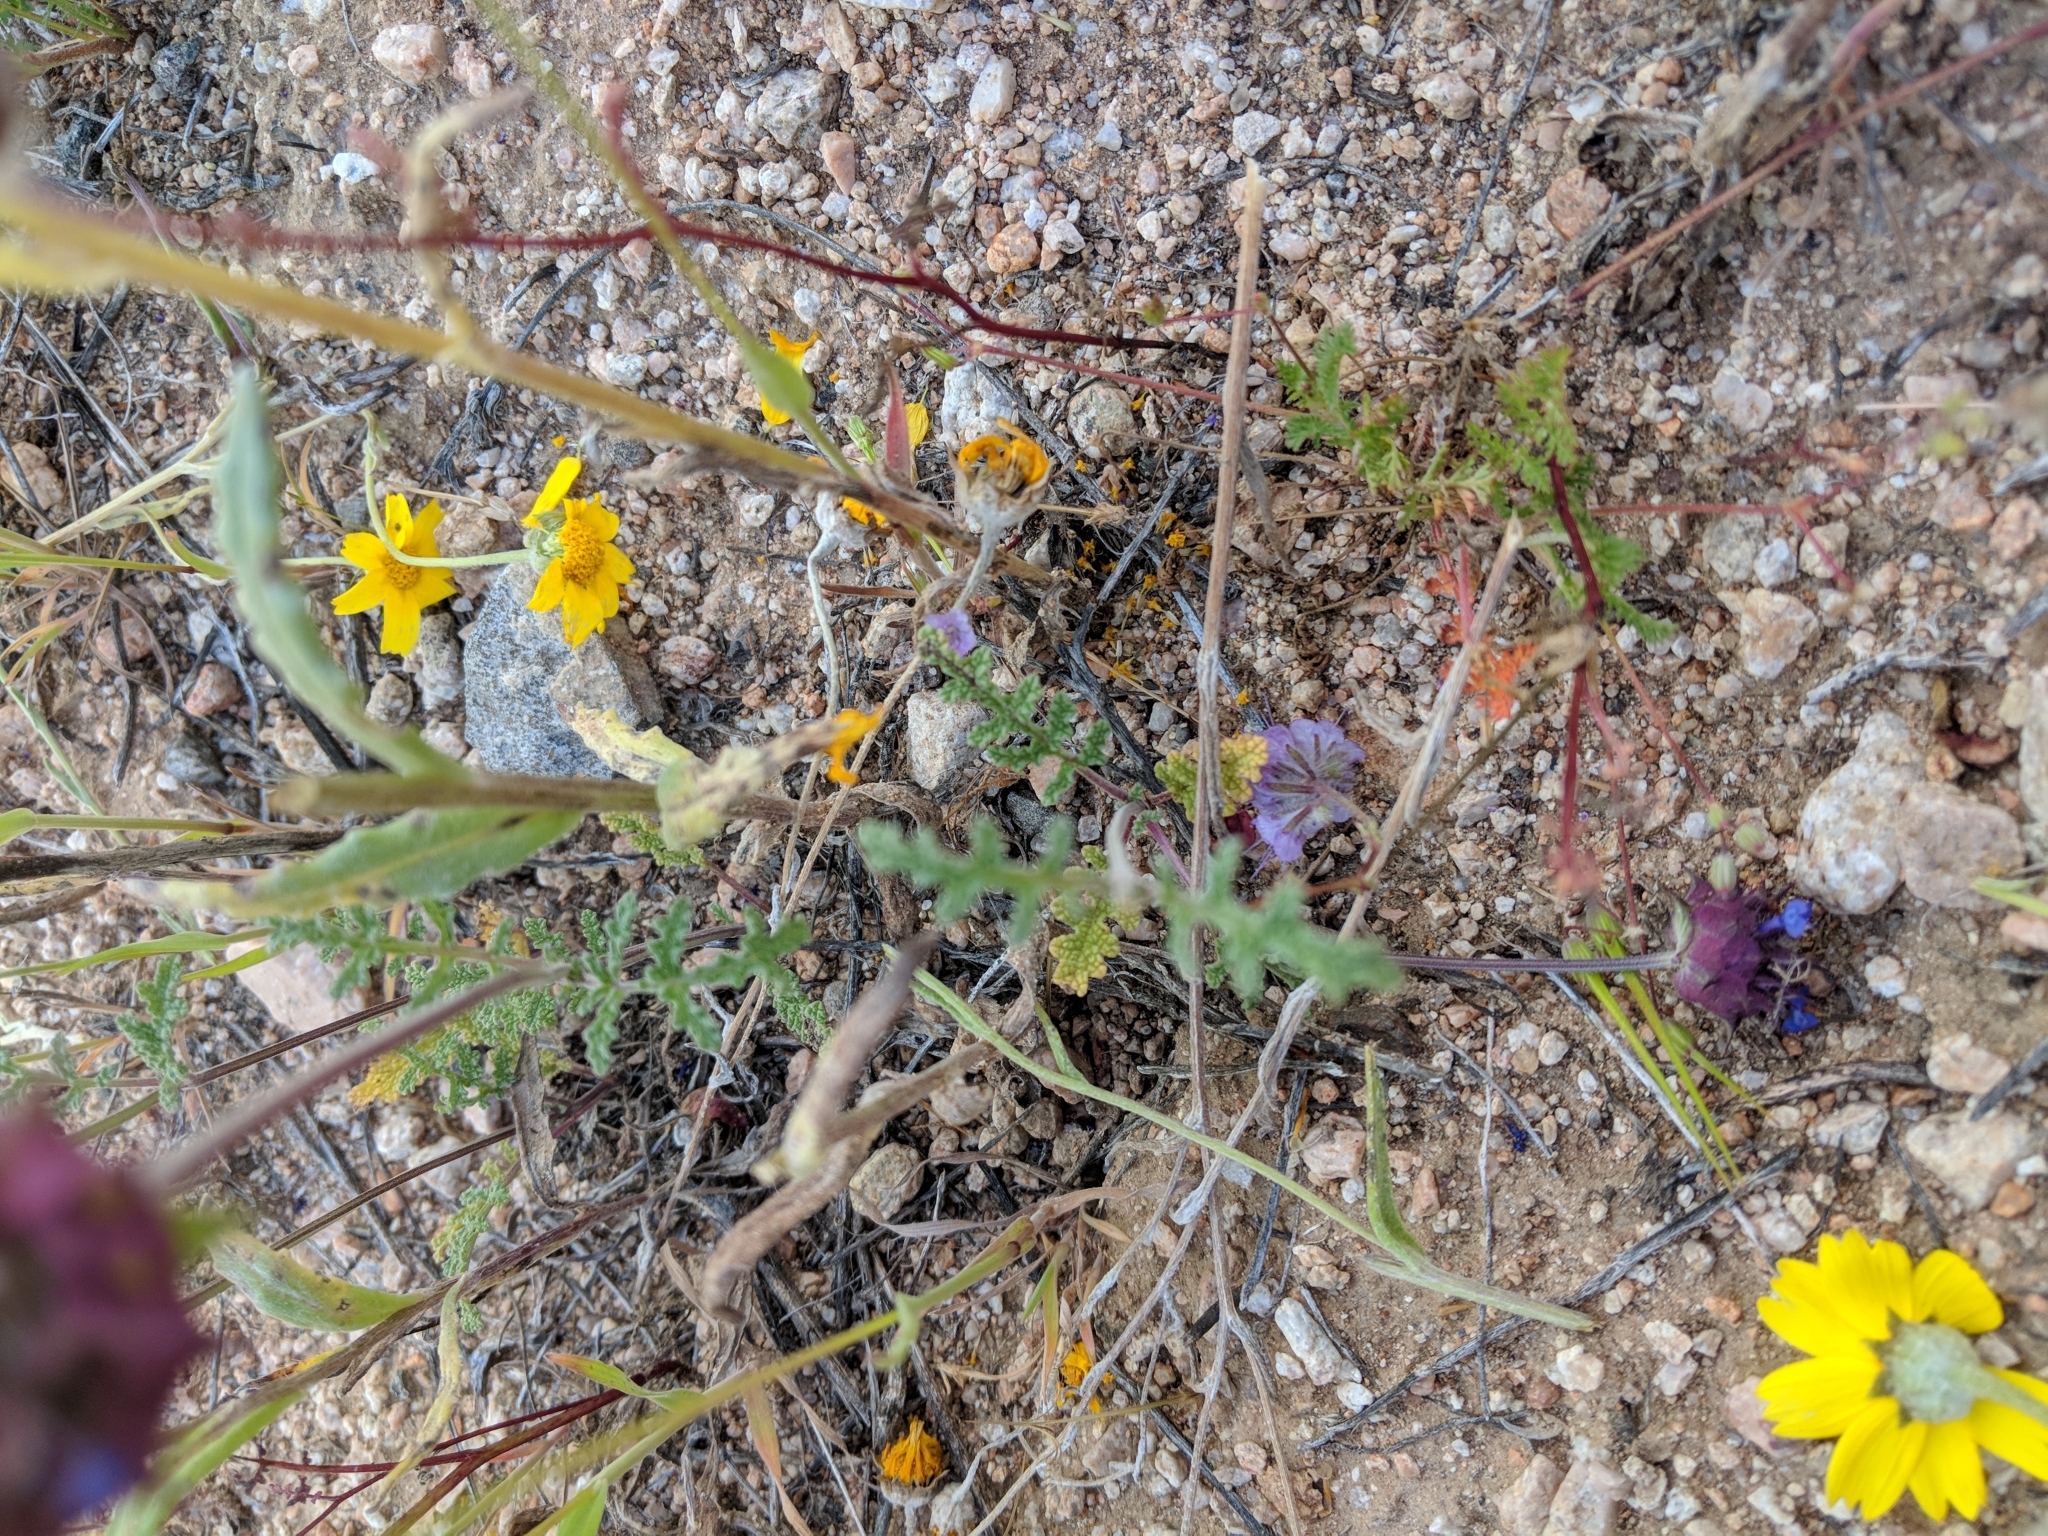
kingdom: Plantae
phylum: Tracheophyta
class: Magnoliopsida
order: Lamiales
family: Lamiaceae
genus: Salvia
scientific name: Salvia columbariae
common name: Chia
